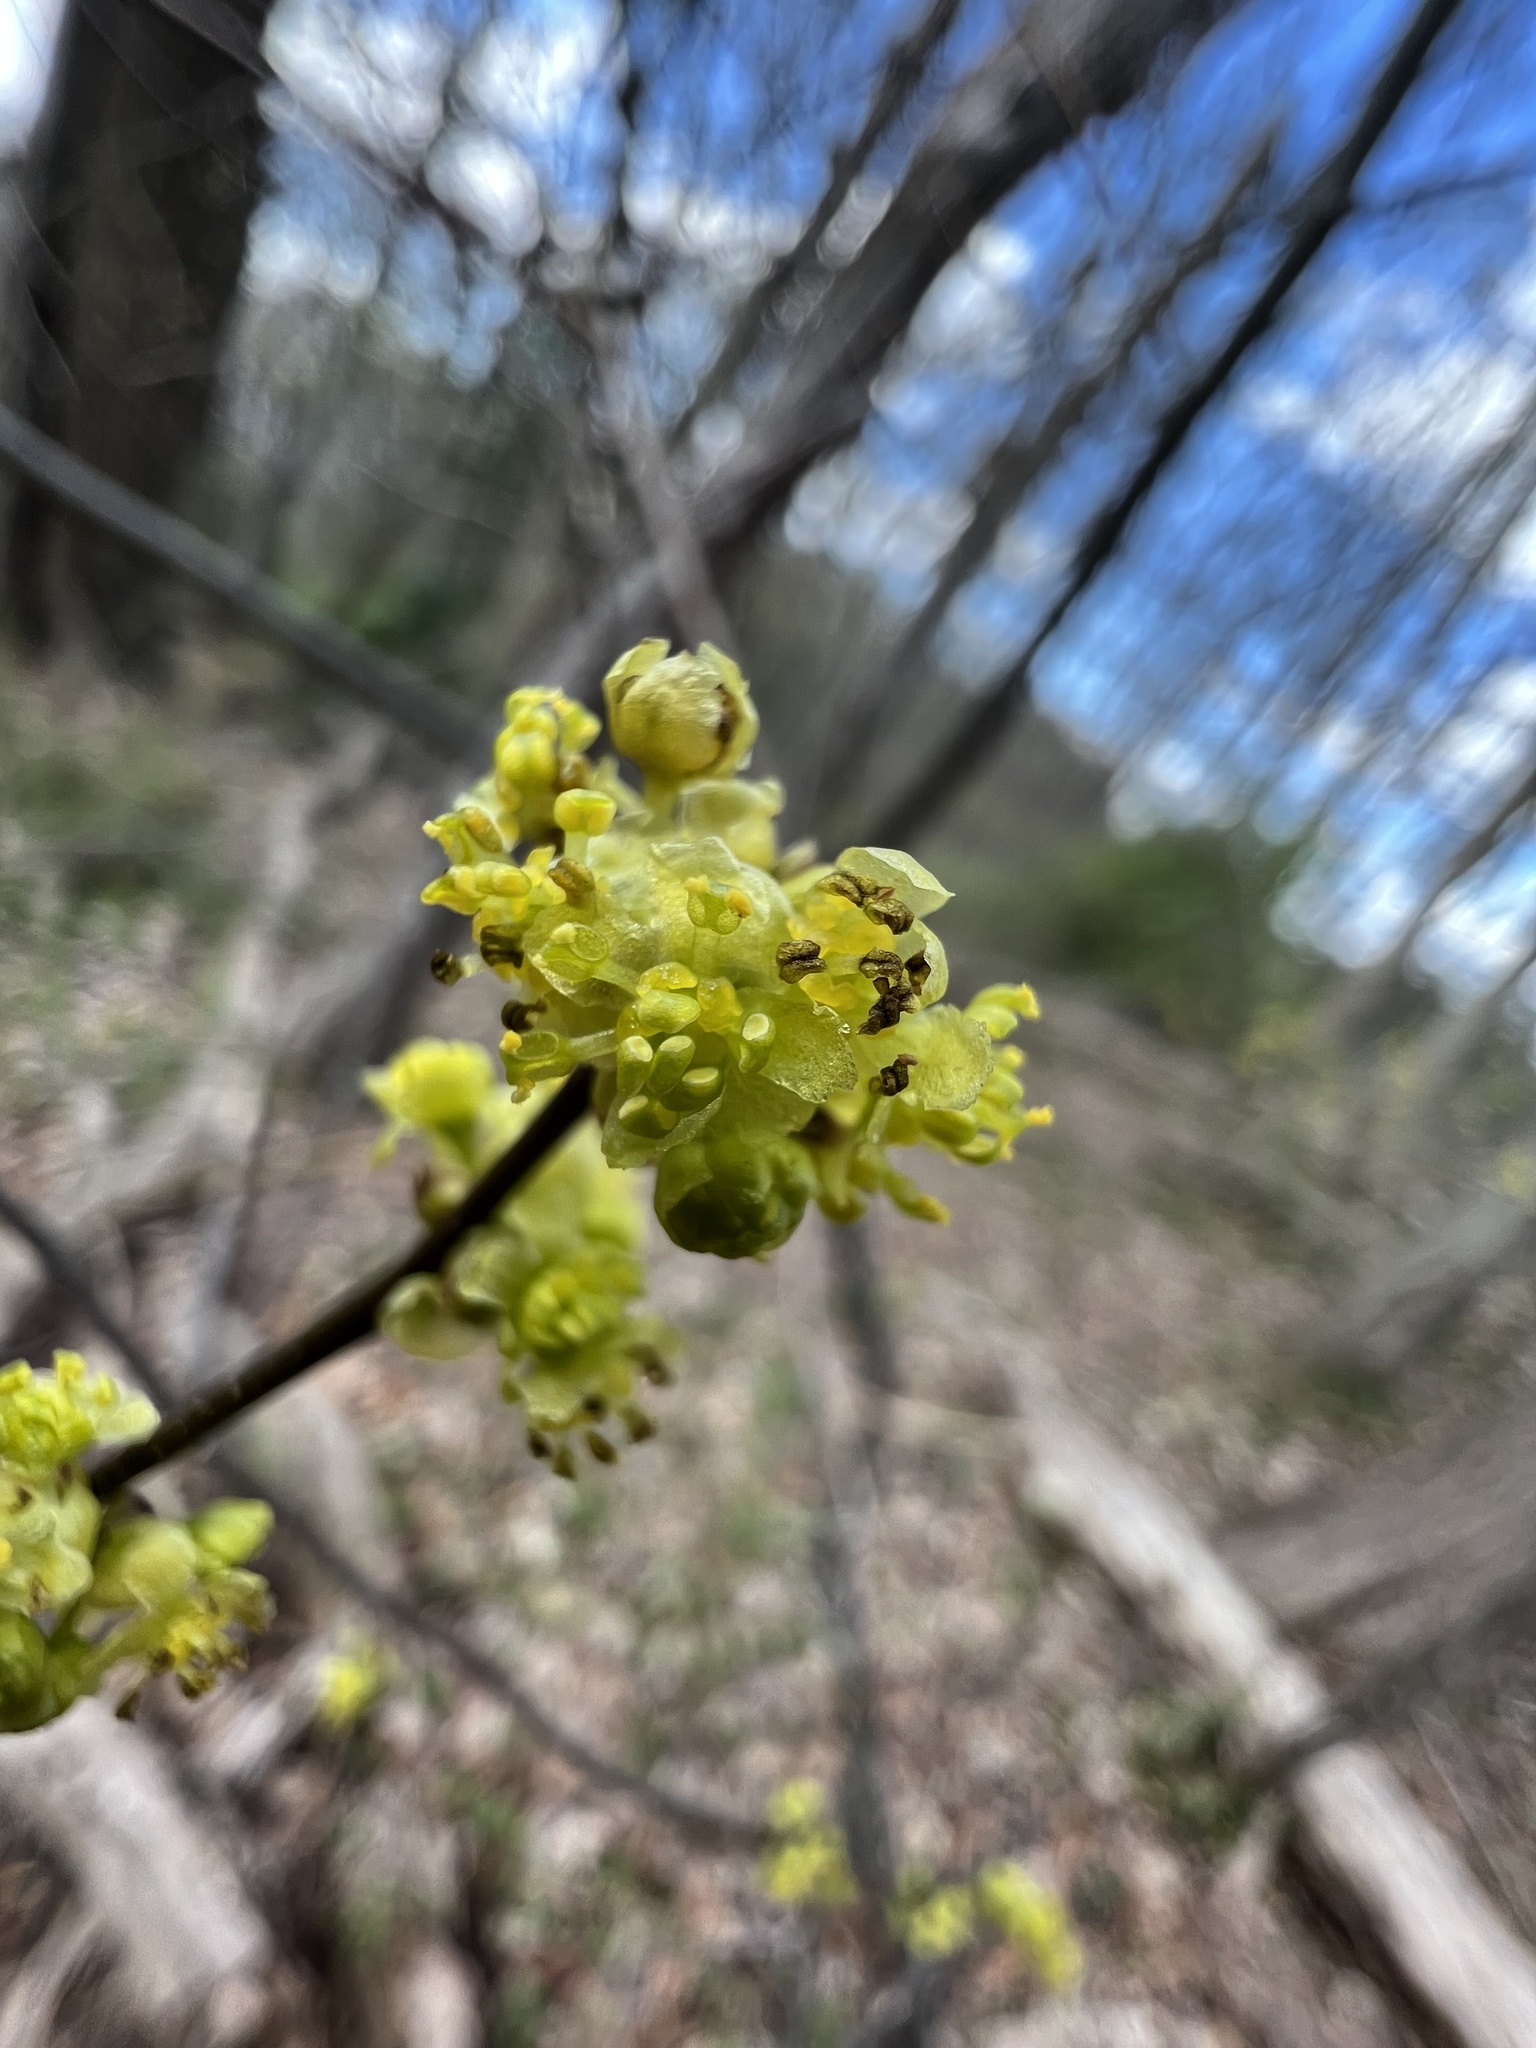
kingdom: Plantae
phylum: Tracheophyta
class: Magnoliopsida
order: Laurales
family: Lauraceae
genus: Lindera
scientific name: Lindera benzoin
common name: Spicebush
